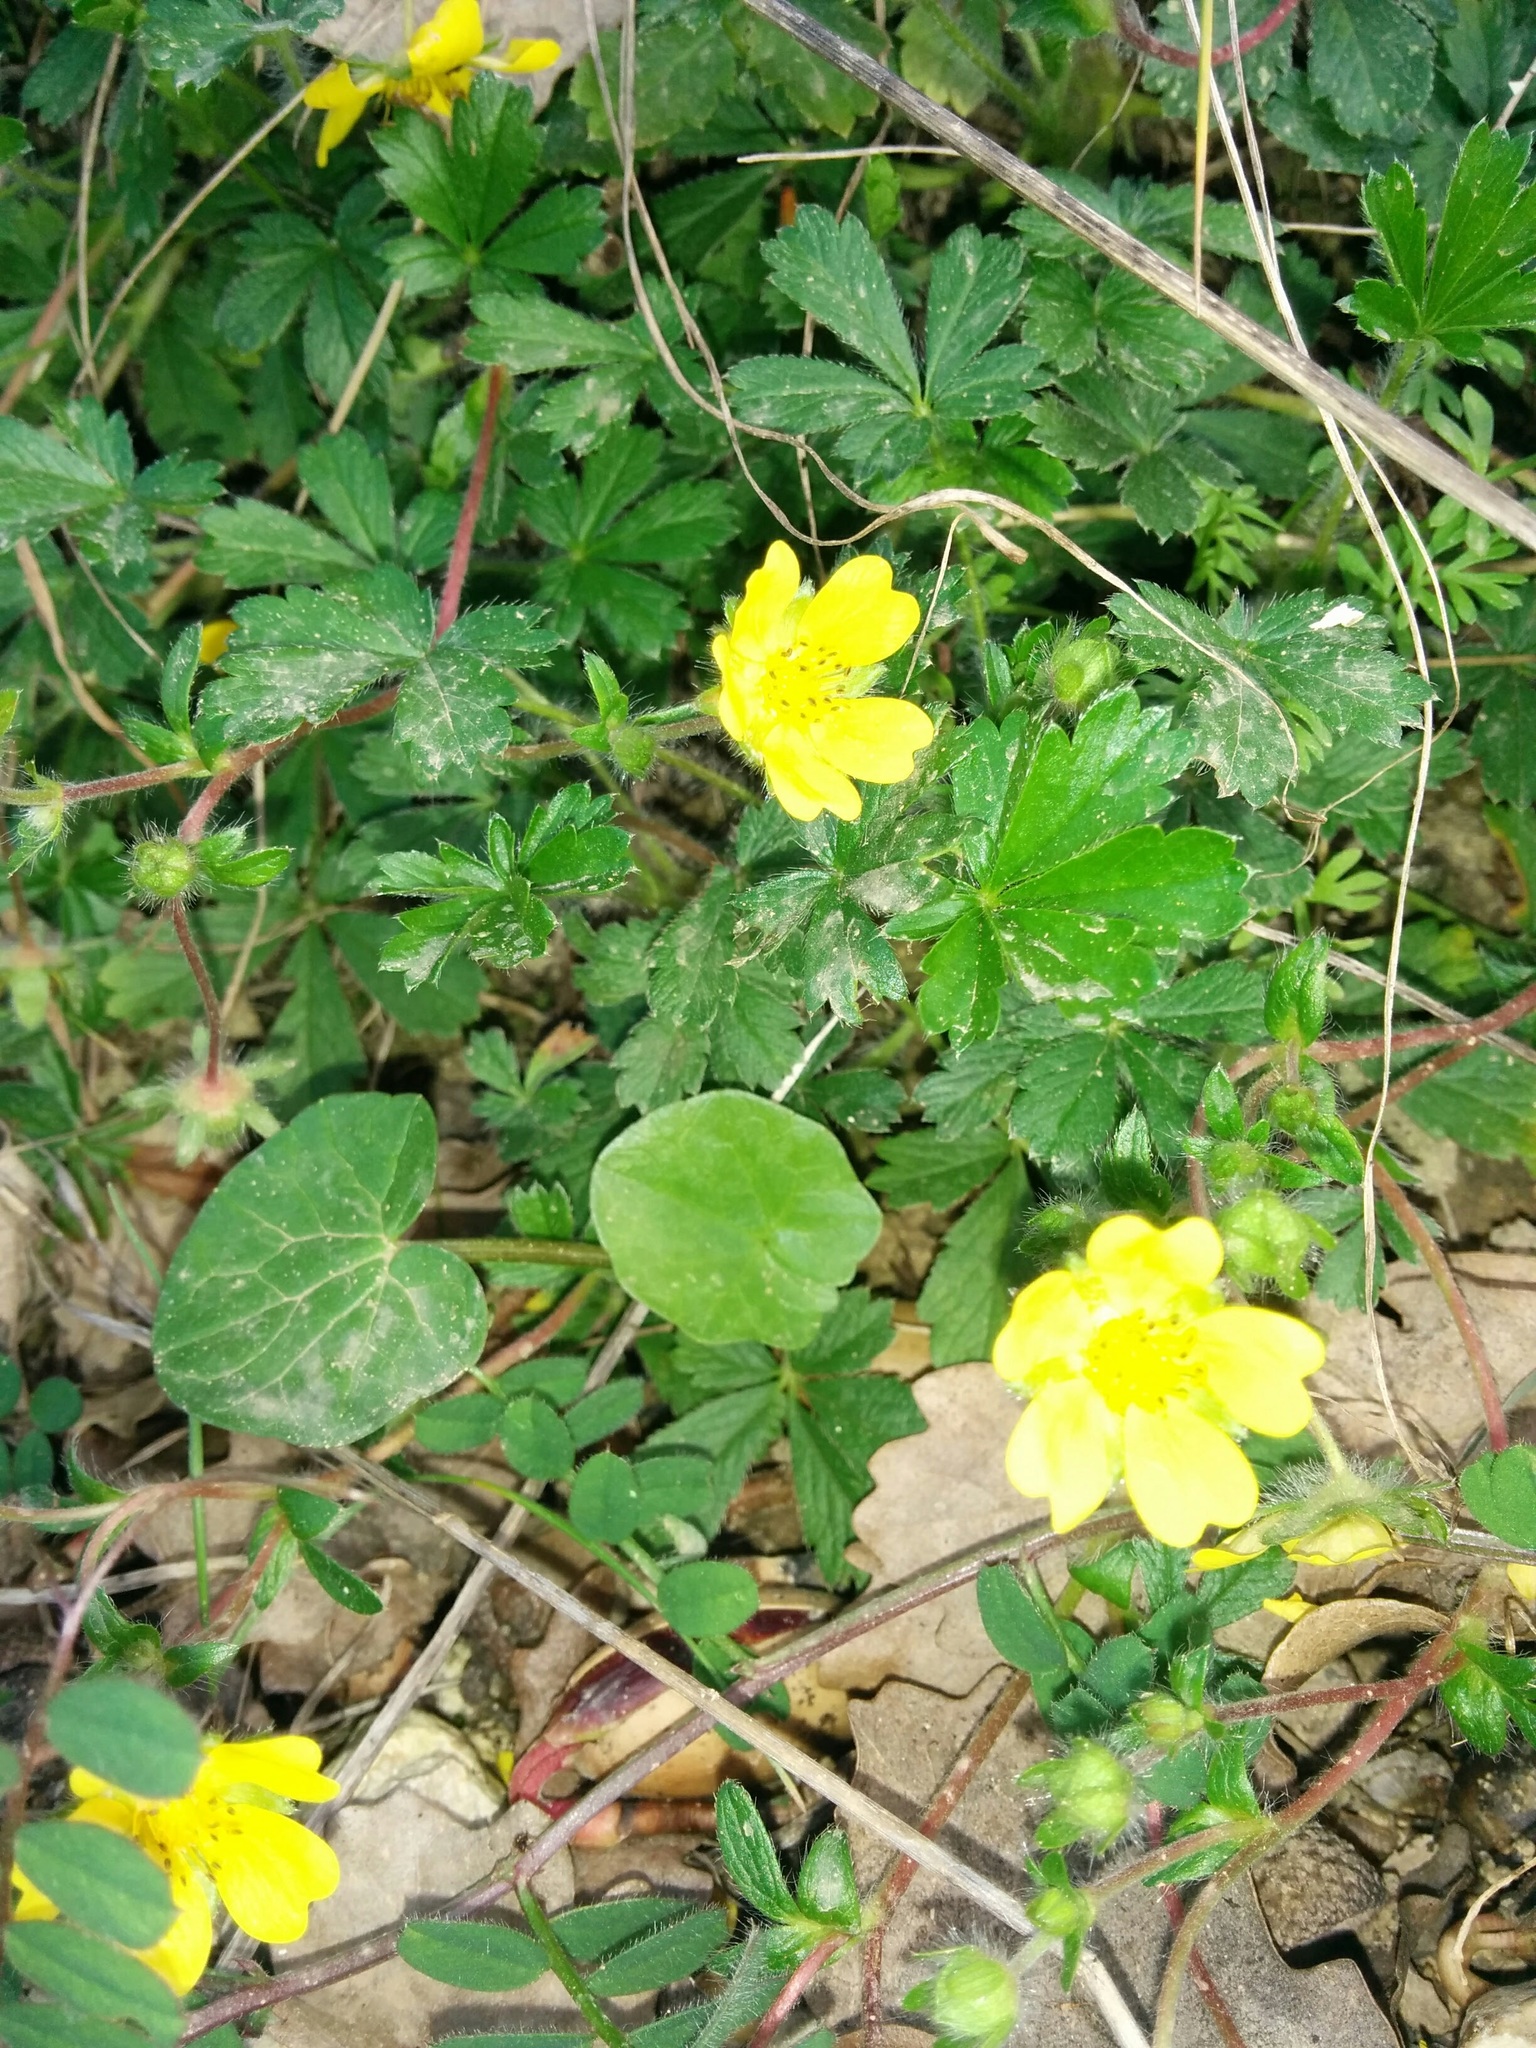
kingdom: Plantae
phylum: Tracheophyta
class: Magnoliopsida
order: Rosales
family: Rosaceae
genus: Potentilla
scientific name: Potentilla verna
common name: Spring cinquefoil
